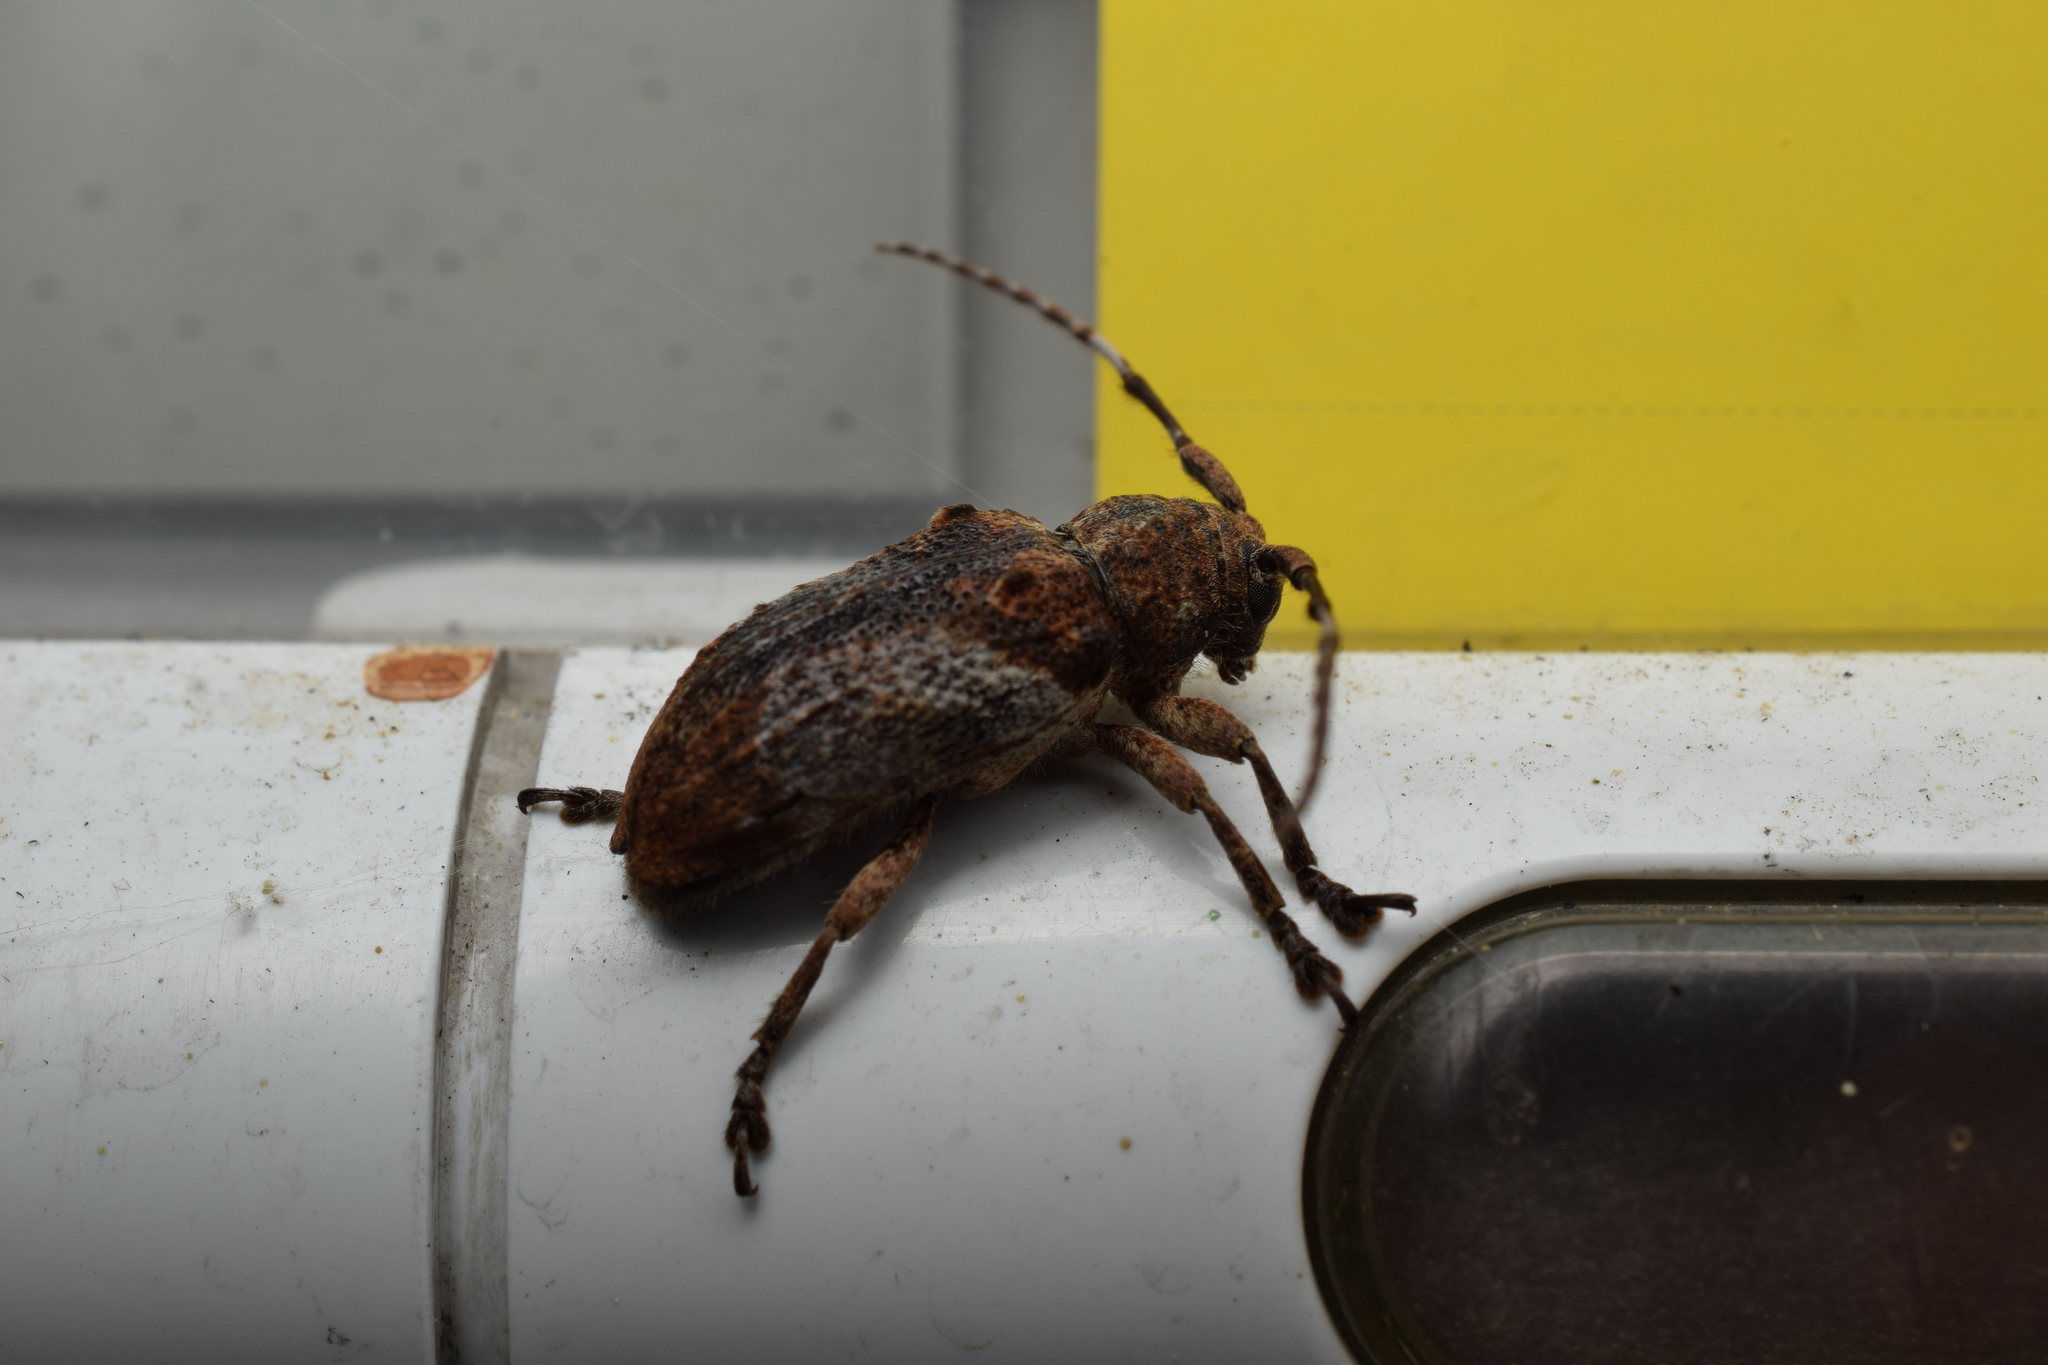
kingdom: Animalia
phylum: Arthropoda
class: Insecta
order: Coleoptera
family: Cerambycidae
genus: Pterolophia
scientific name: Pterolophia annulata
